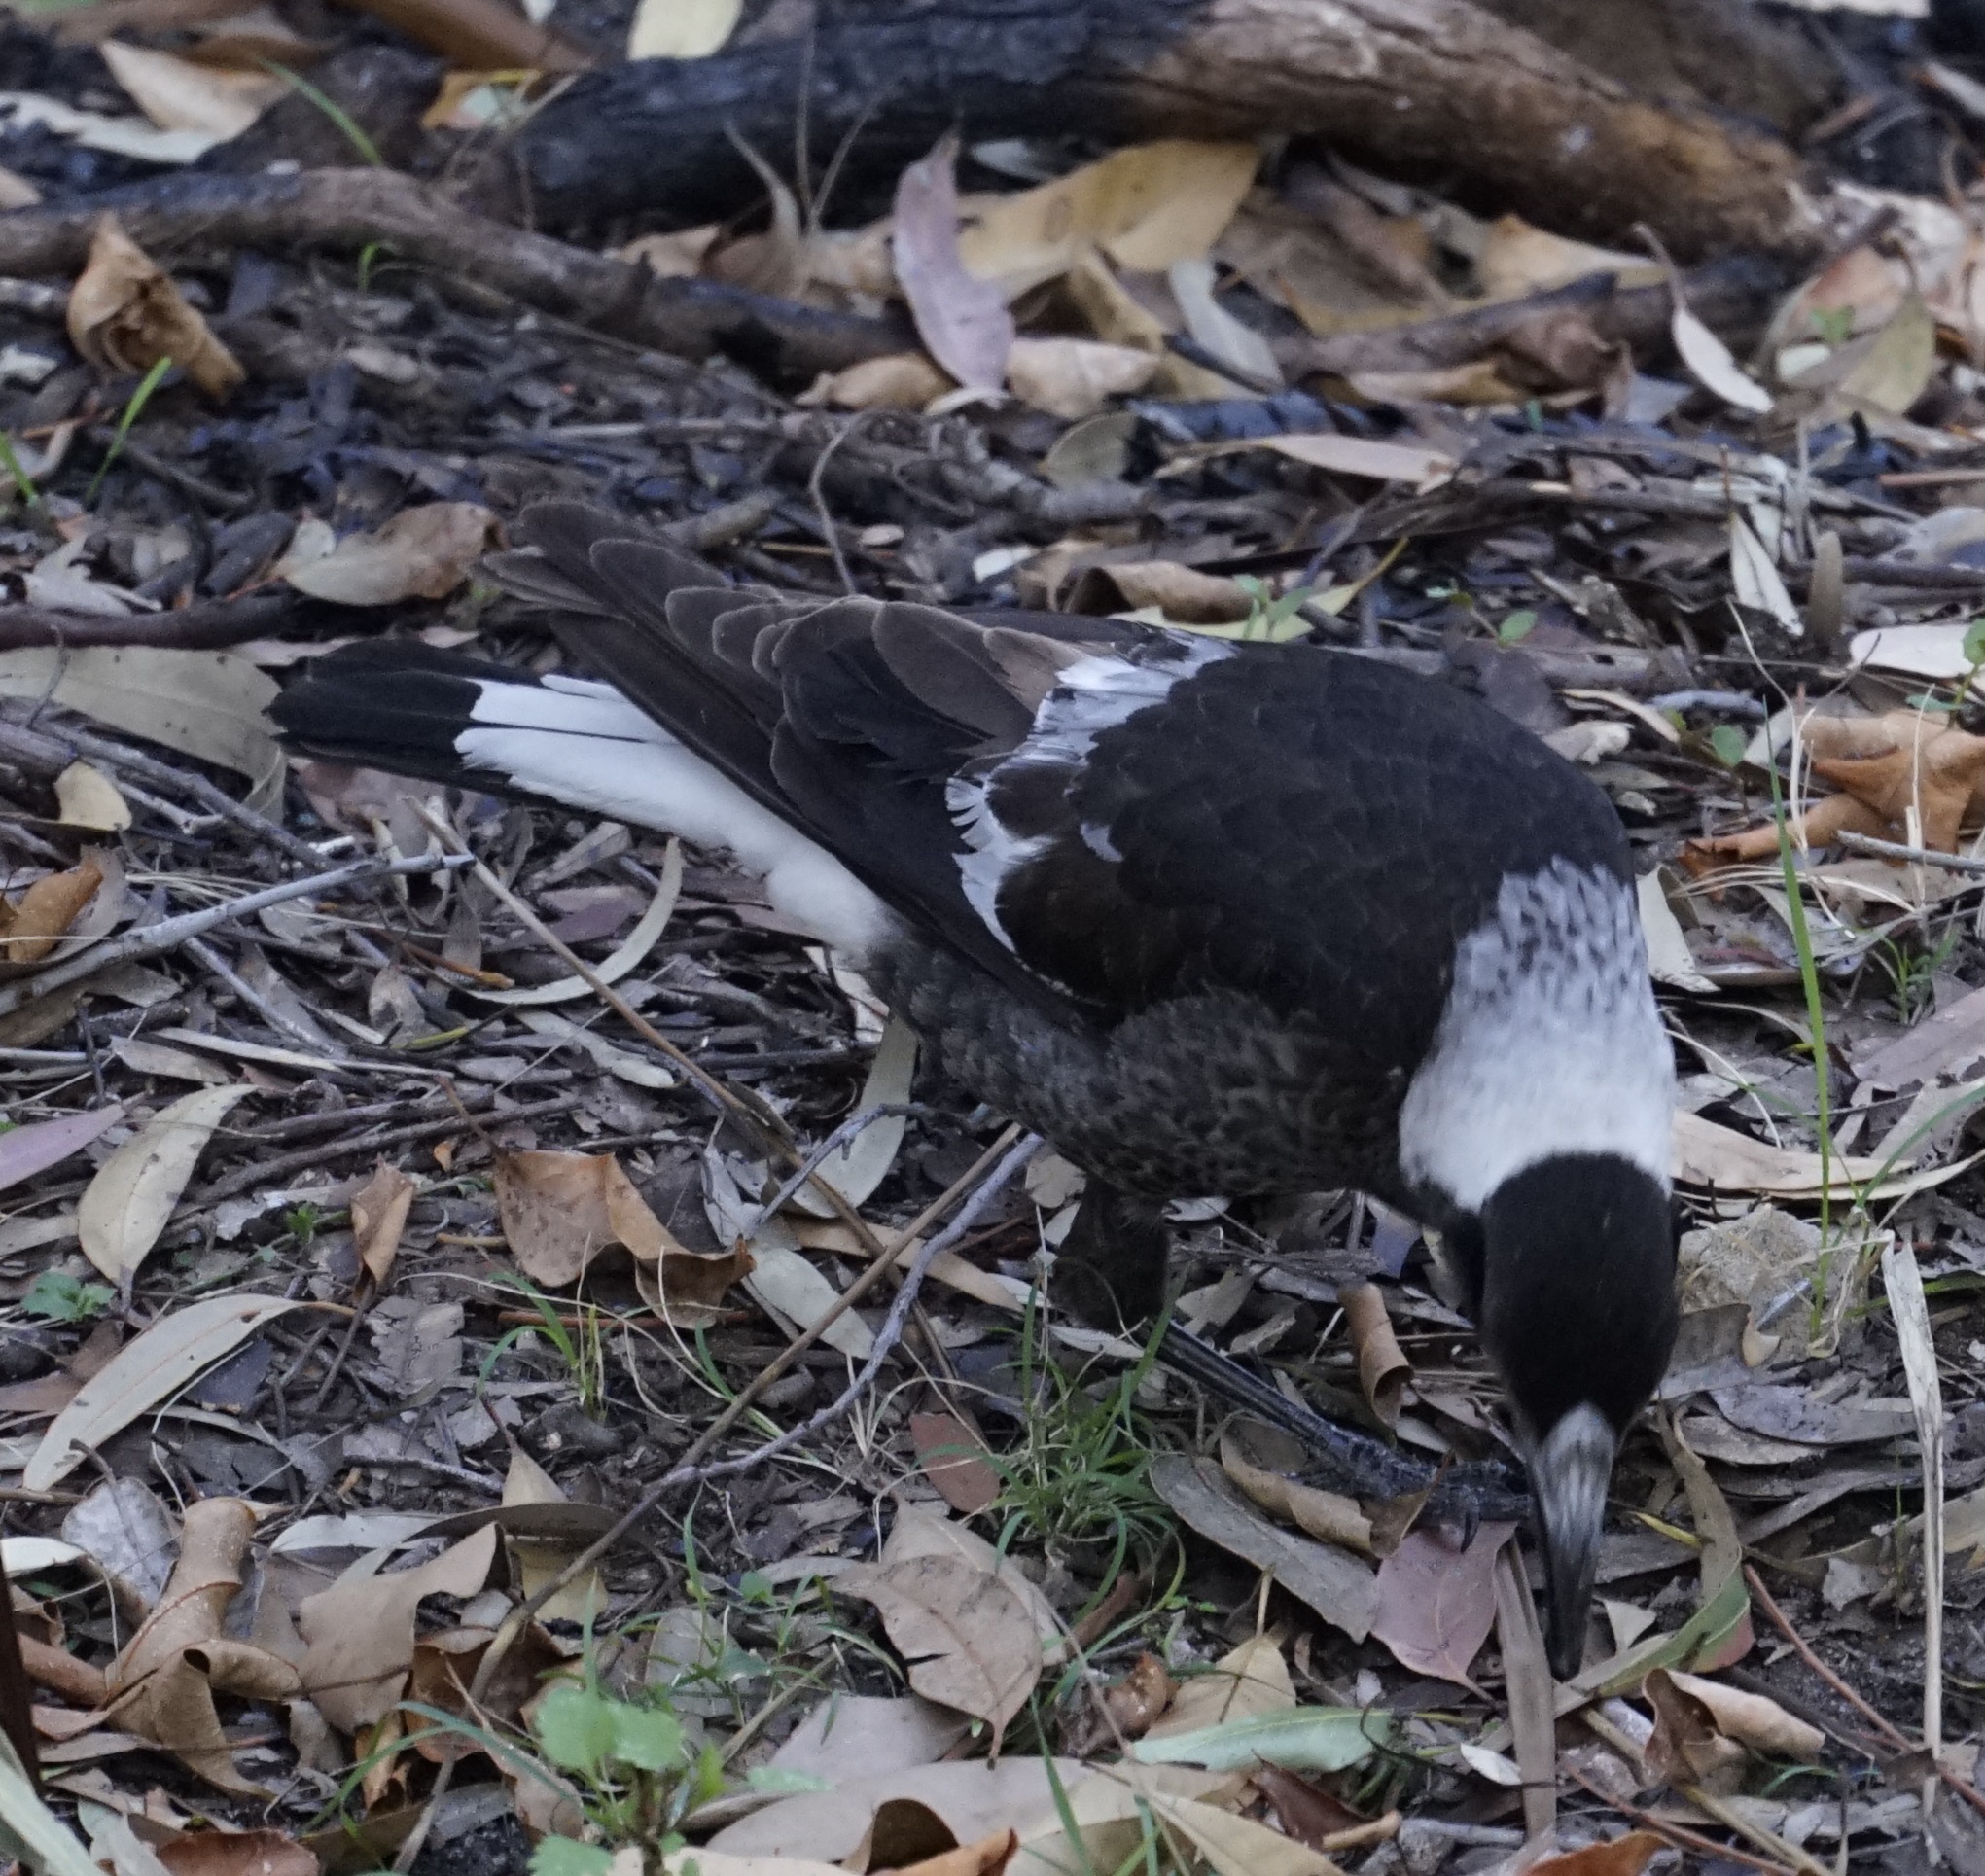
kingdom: Animalia
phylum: Chordata
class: Aves
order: Passeriformes
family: Cracticidae
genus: Gymnorhina
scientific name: Gymnorhina tibicen
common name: Australian magpie
